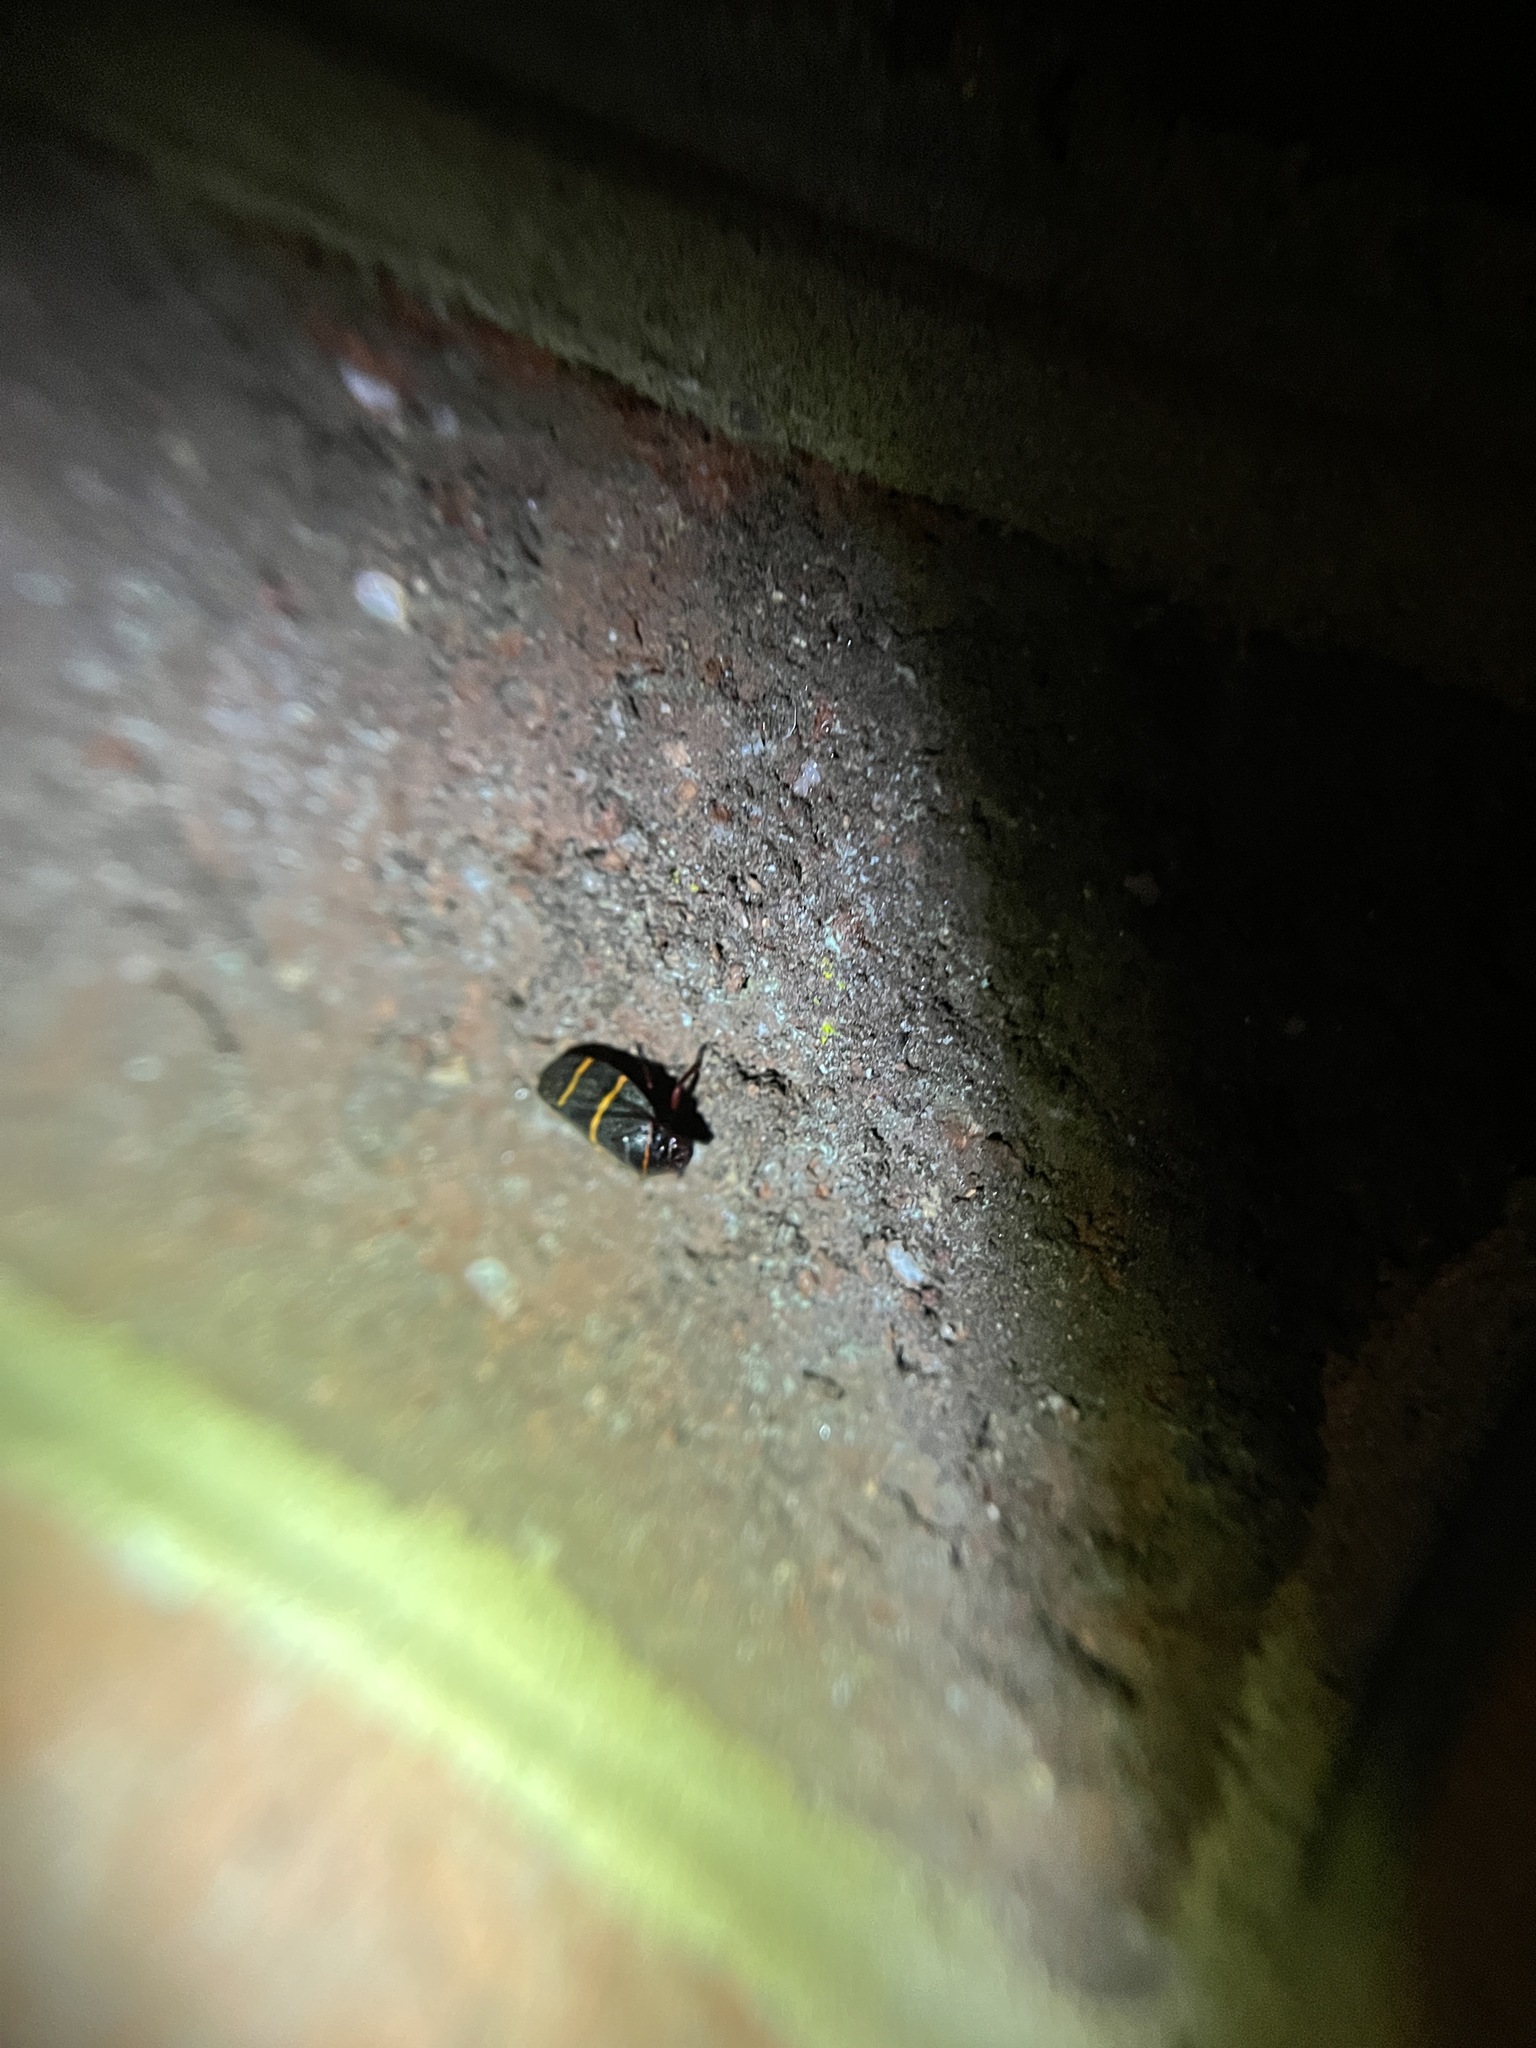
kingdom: Animalia
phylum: Arthropoda
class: Insecta
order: Hemiptera
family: Cercopidae
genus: Prosapia
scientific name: Prosapia bicincta
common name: Twolined spittlebug
